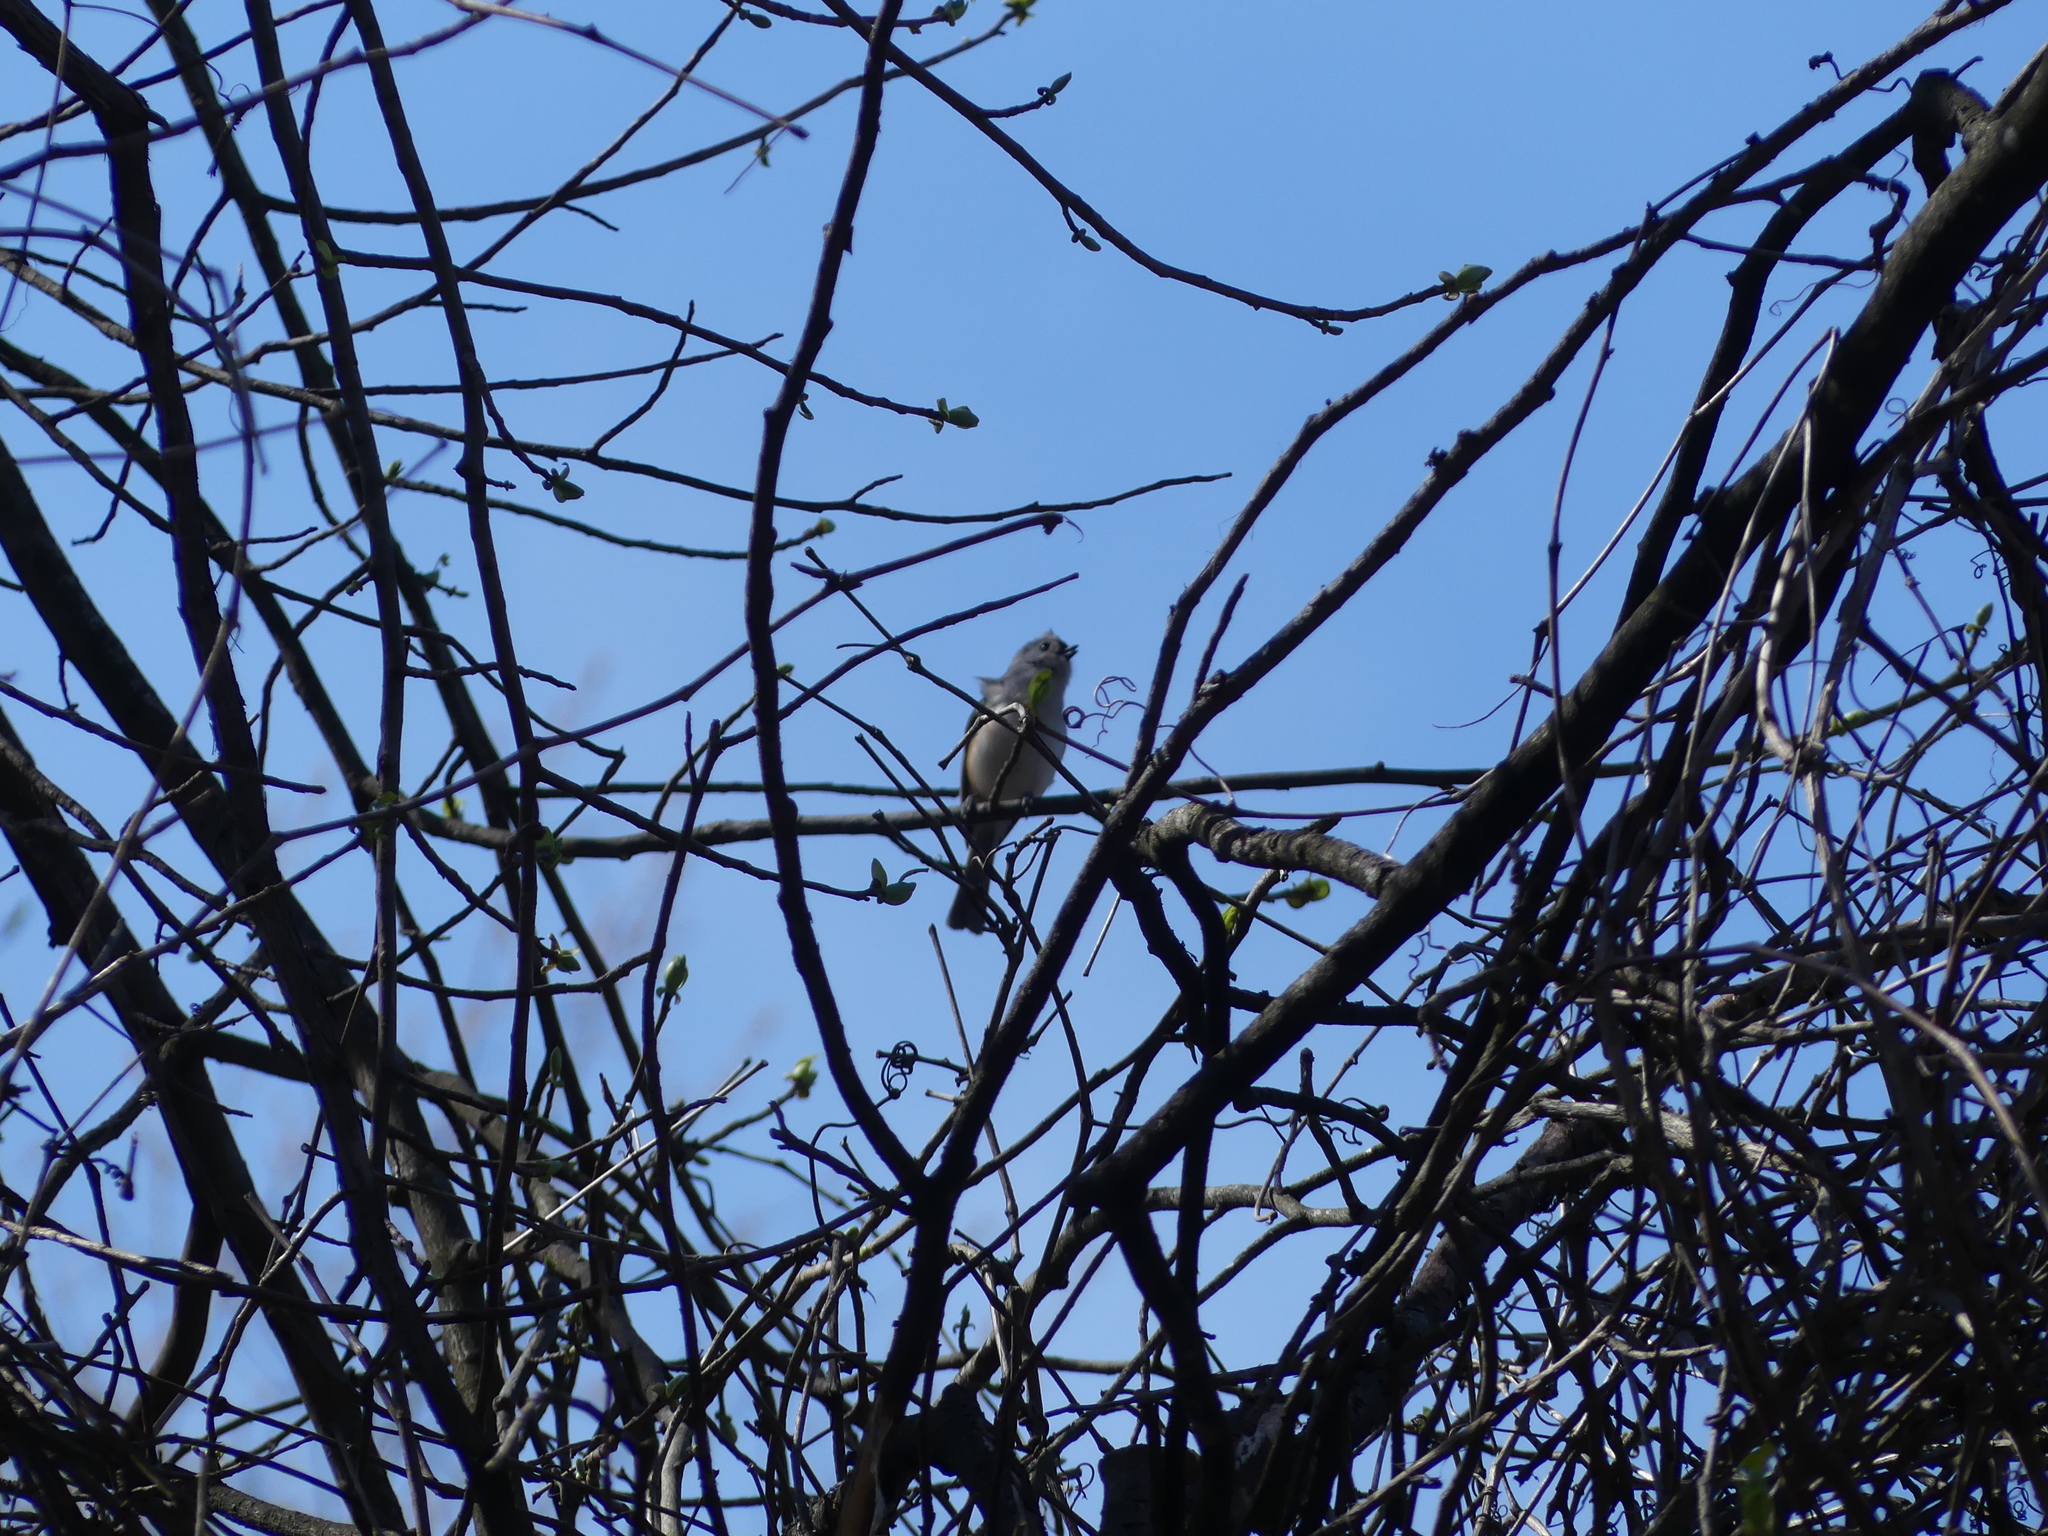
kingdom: Animalia
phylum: Chordata
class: Aves
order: Passeriformes
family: Paridae
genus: Baeolophus
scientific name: Baeolophus bicolor
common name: Tufted titmouse
